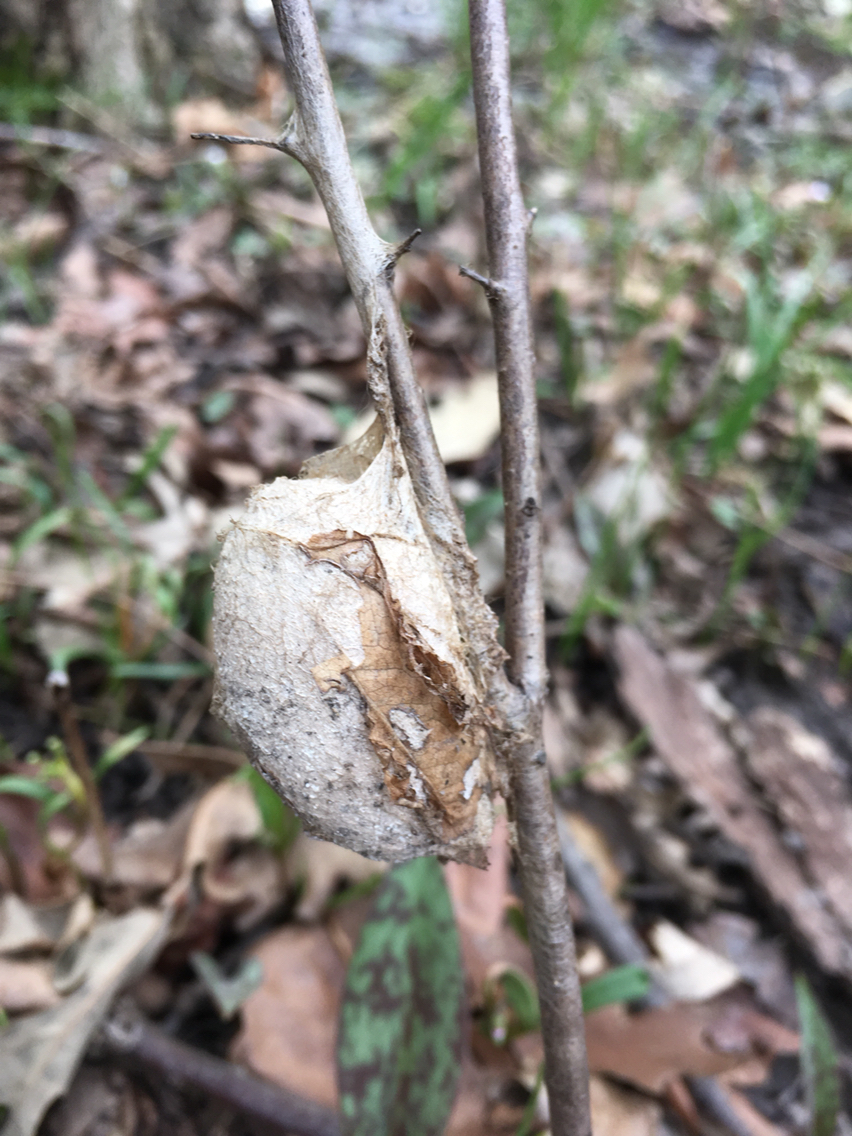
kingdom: Animalia
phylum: Arthropoda
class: Insecta
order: Lepidoptera
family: Saturniidae
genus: Antheraea
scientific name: Antheraea polyphemus
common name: Polyphemus moth
